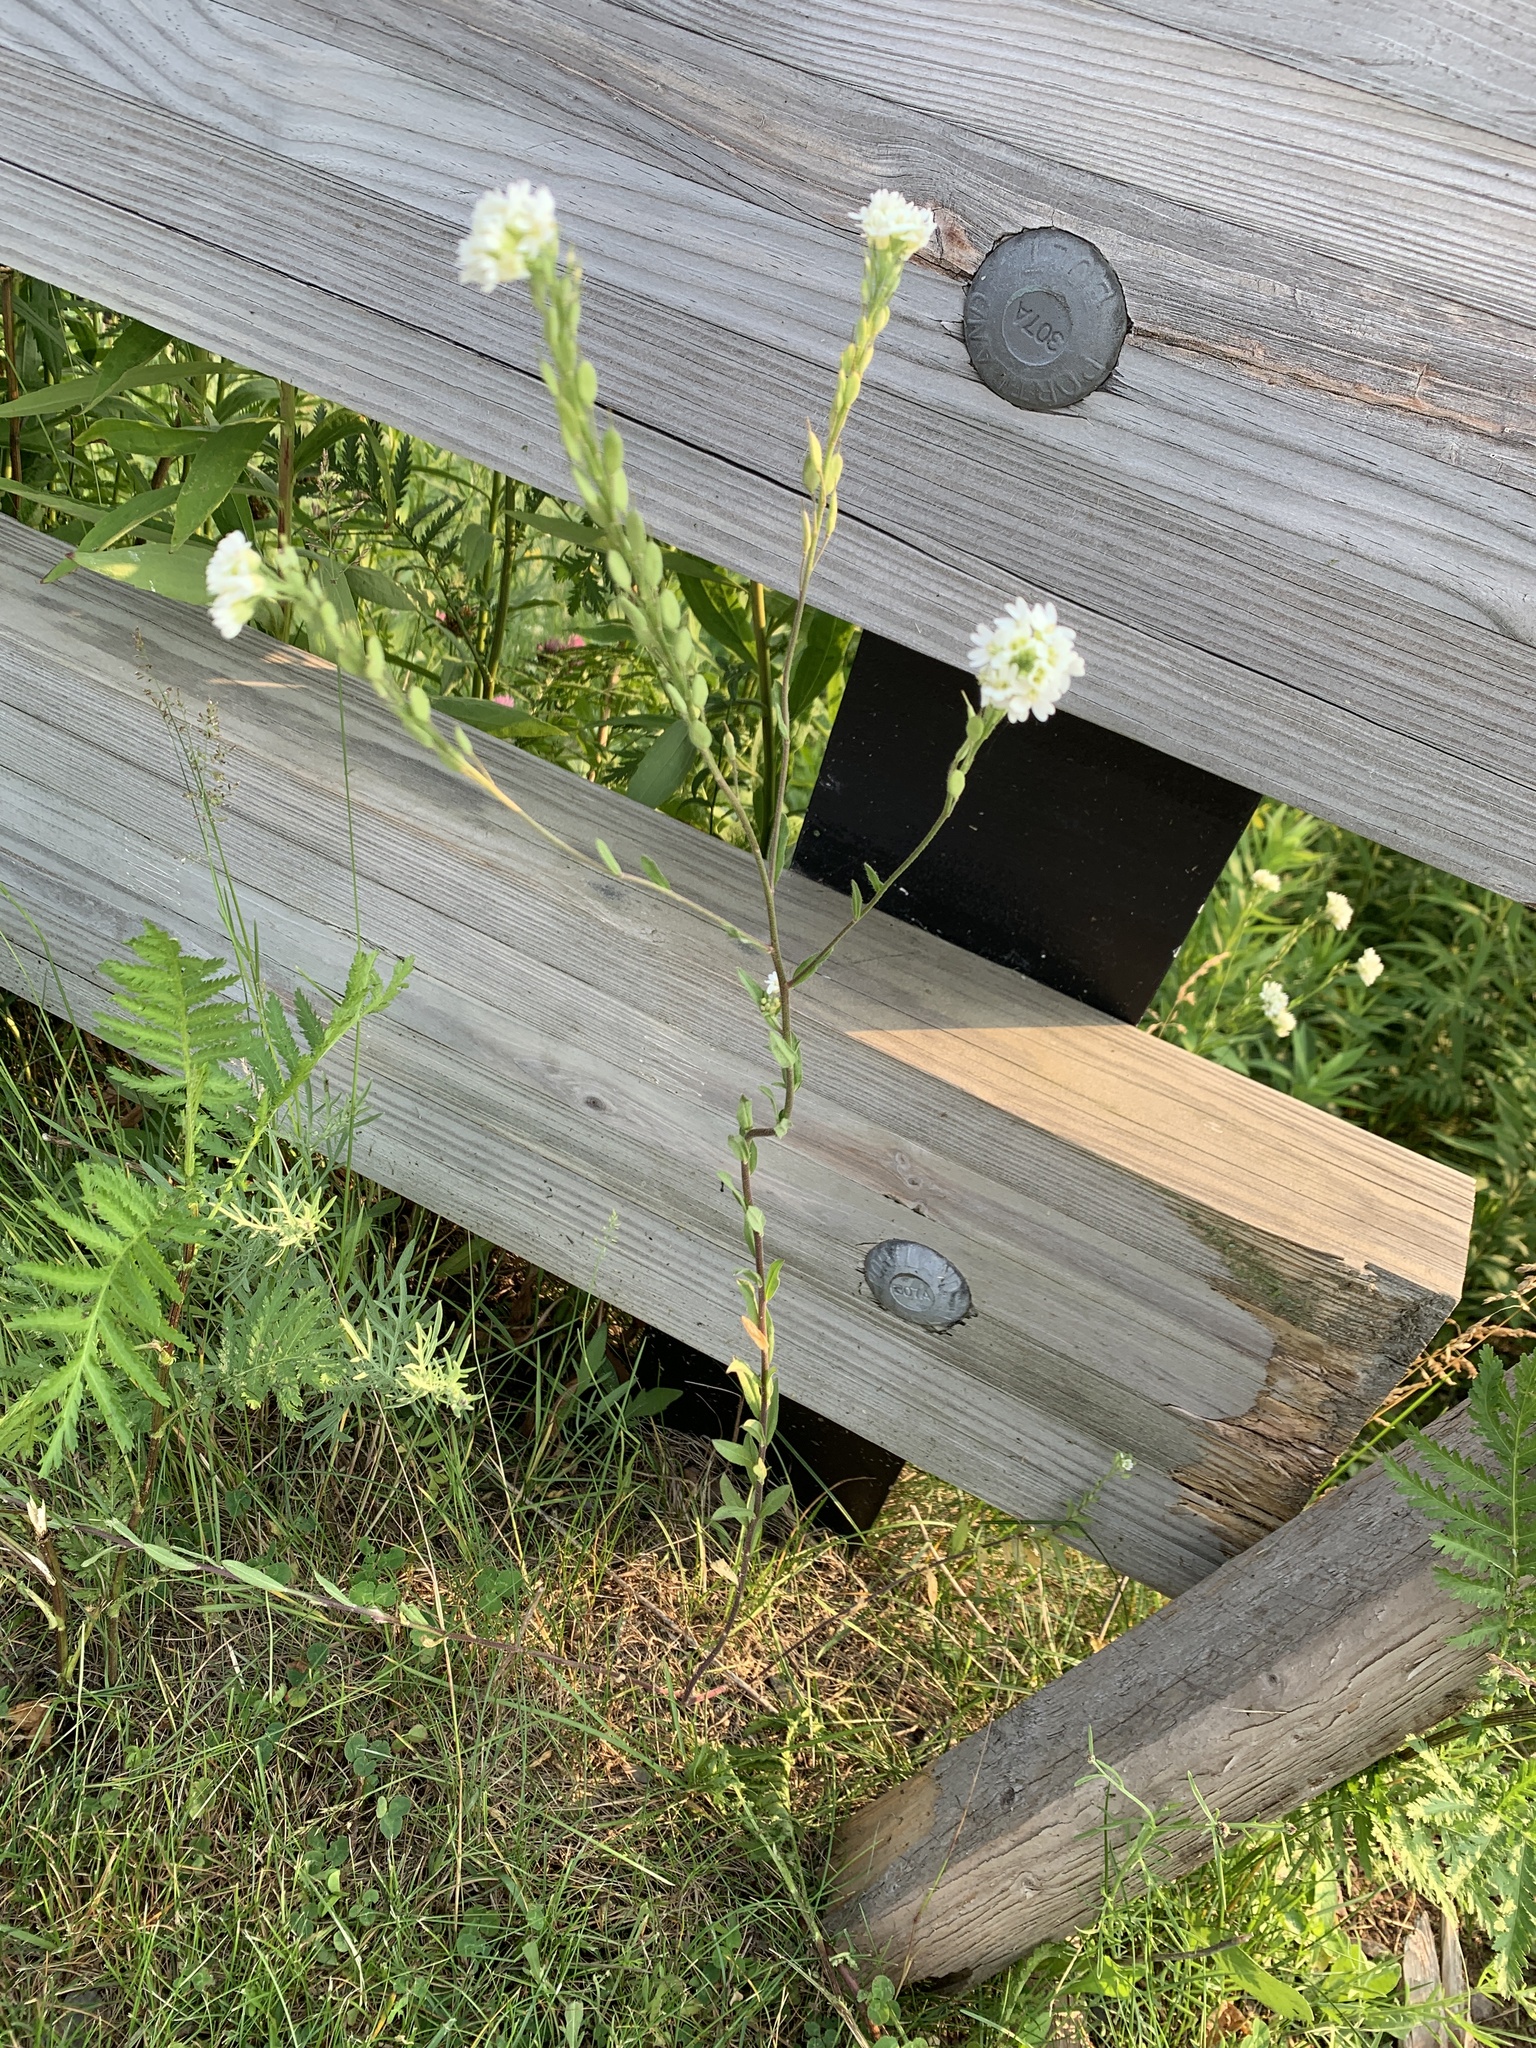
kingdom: Plantae
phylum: Tracheophyta
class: Magnoliopsida
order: Brassicales
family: Brassicaceae
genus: Berteroa
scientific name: Berteroa incana
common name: Hoary alison
